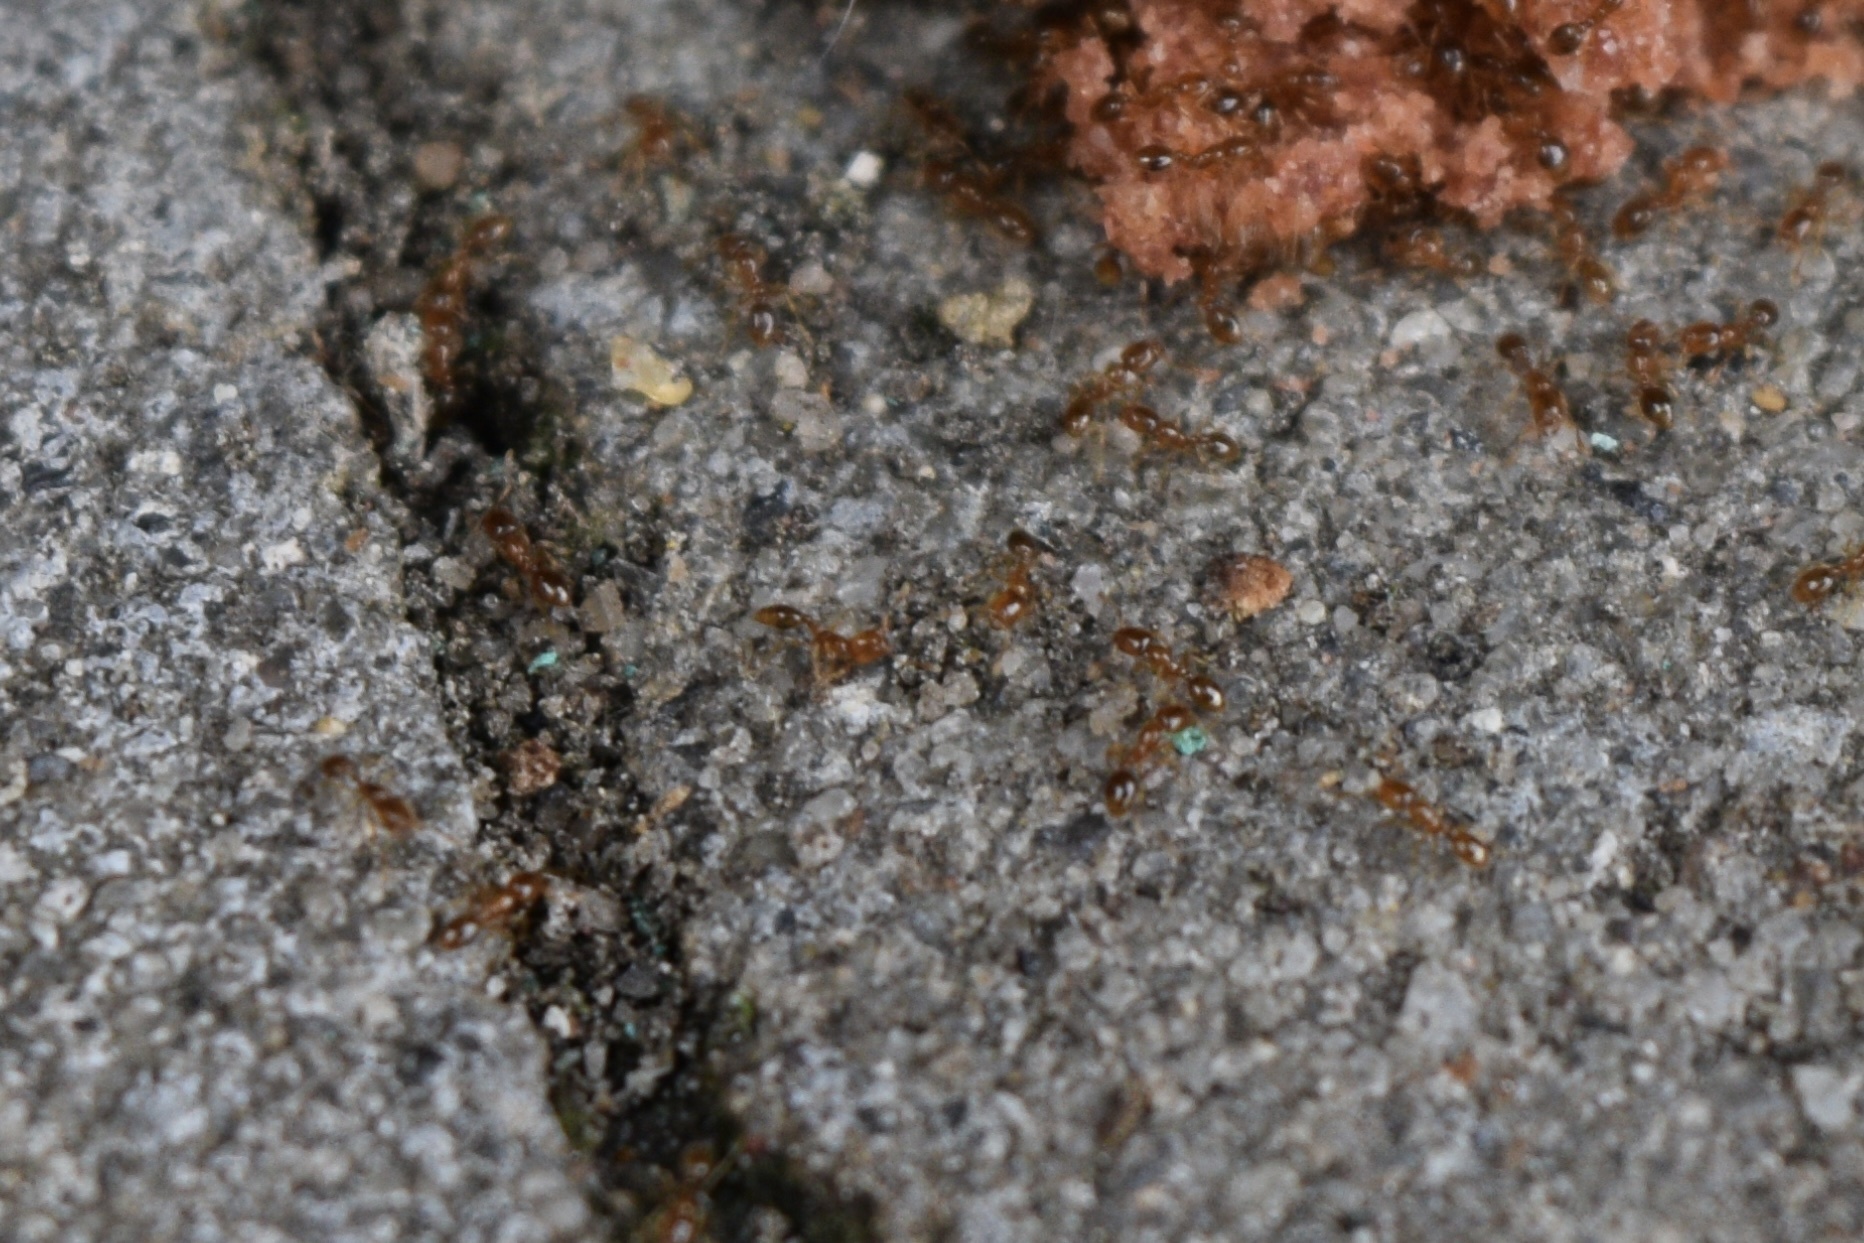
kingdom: Animalia
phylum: Arthropoda
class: Insecta
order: Hymenoptera
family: Formicidae
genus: Solenopsis
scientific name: Solenopsis molesta
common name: Thief ant
